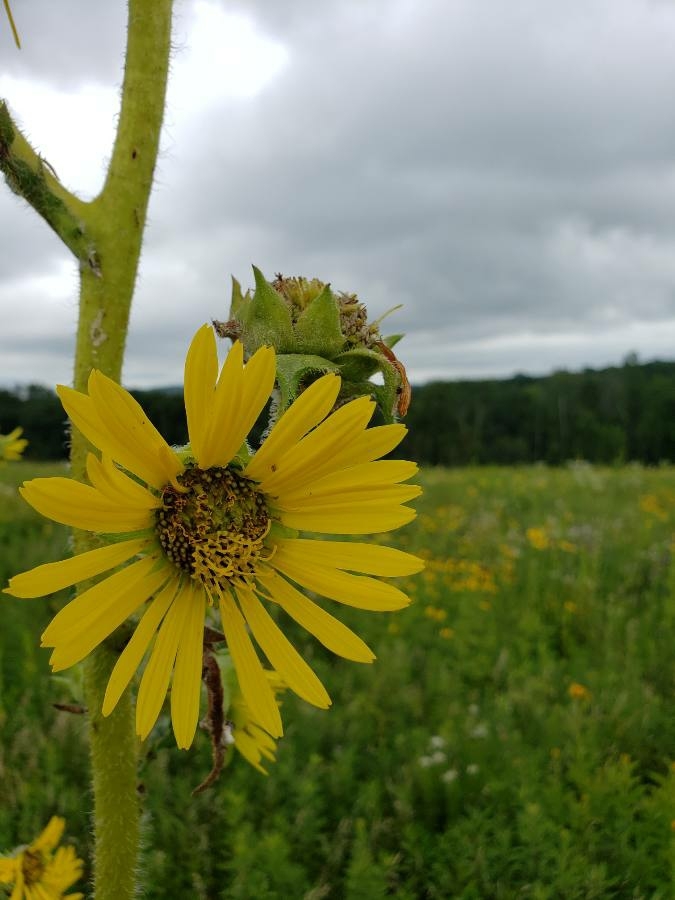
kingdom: Plantae
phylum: Tracheophyta
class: Magnoliopsida
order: Asterales
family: Asteraceae
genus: Silphium
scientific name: Silphium laciniatum
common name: Polarplant
